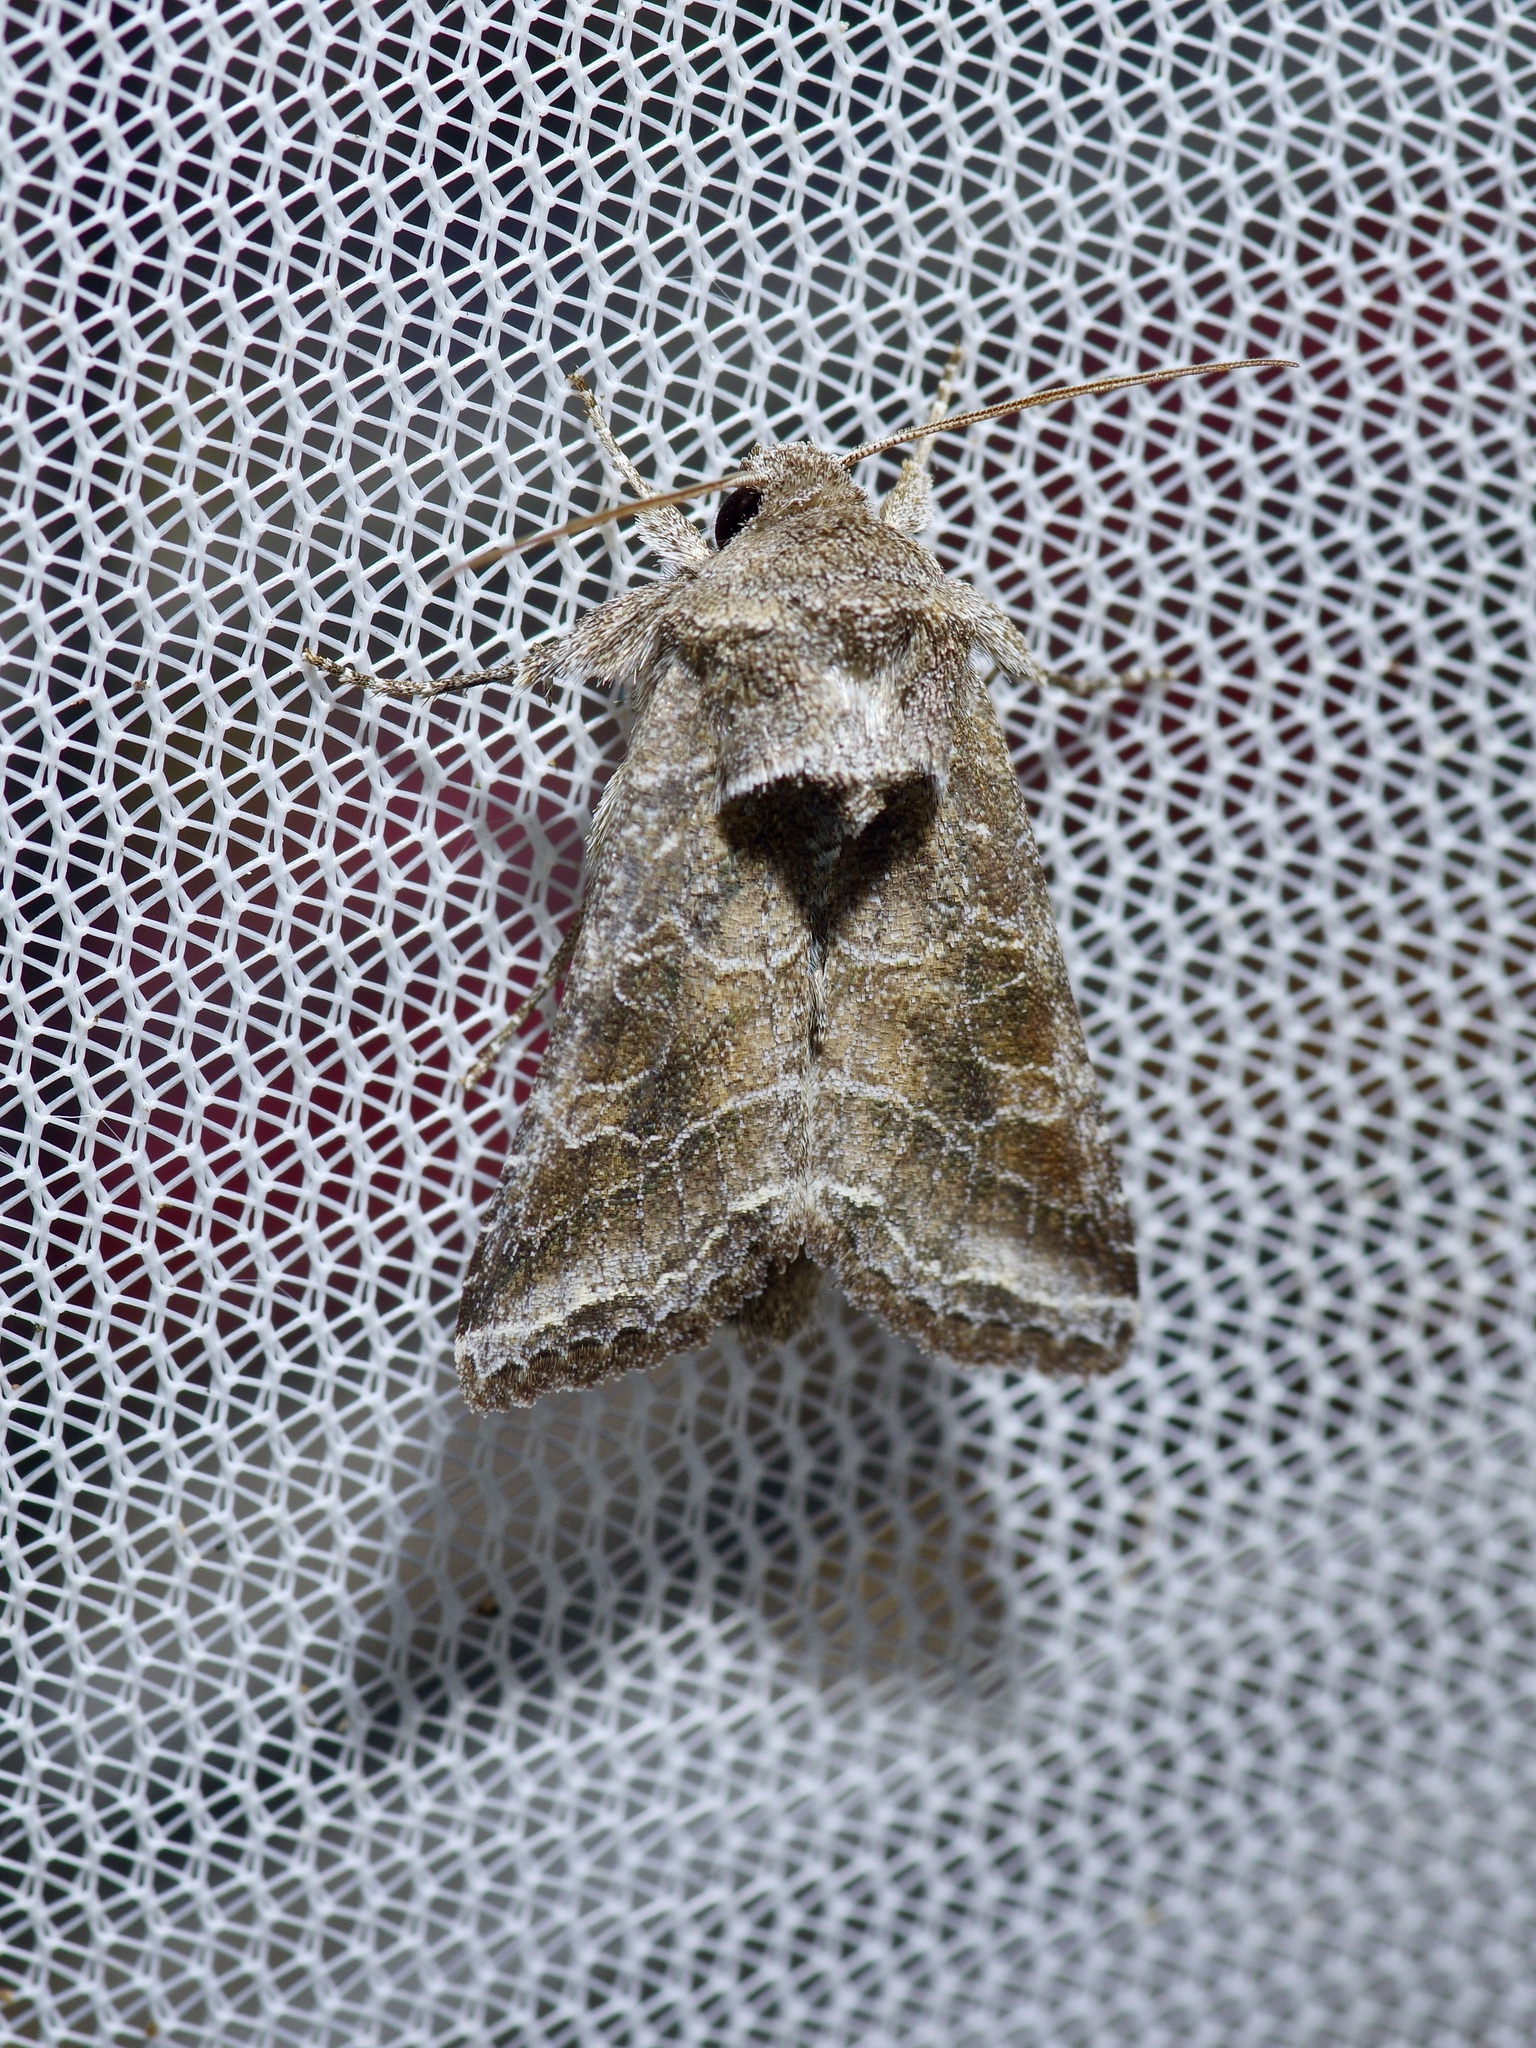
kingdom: Animalia
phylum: Arthropoda
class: Insecta
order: Lepidoptera
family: Noctuidae
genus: Lacinipolia
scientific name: Lacinipolia erecta
